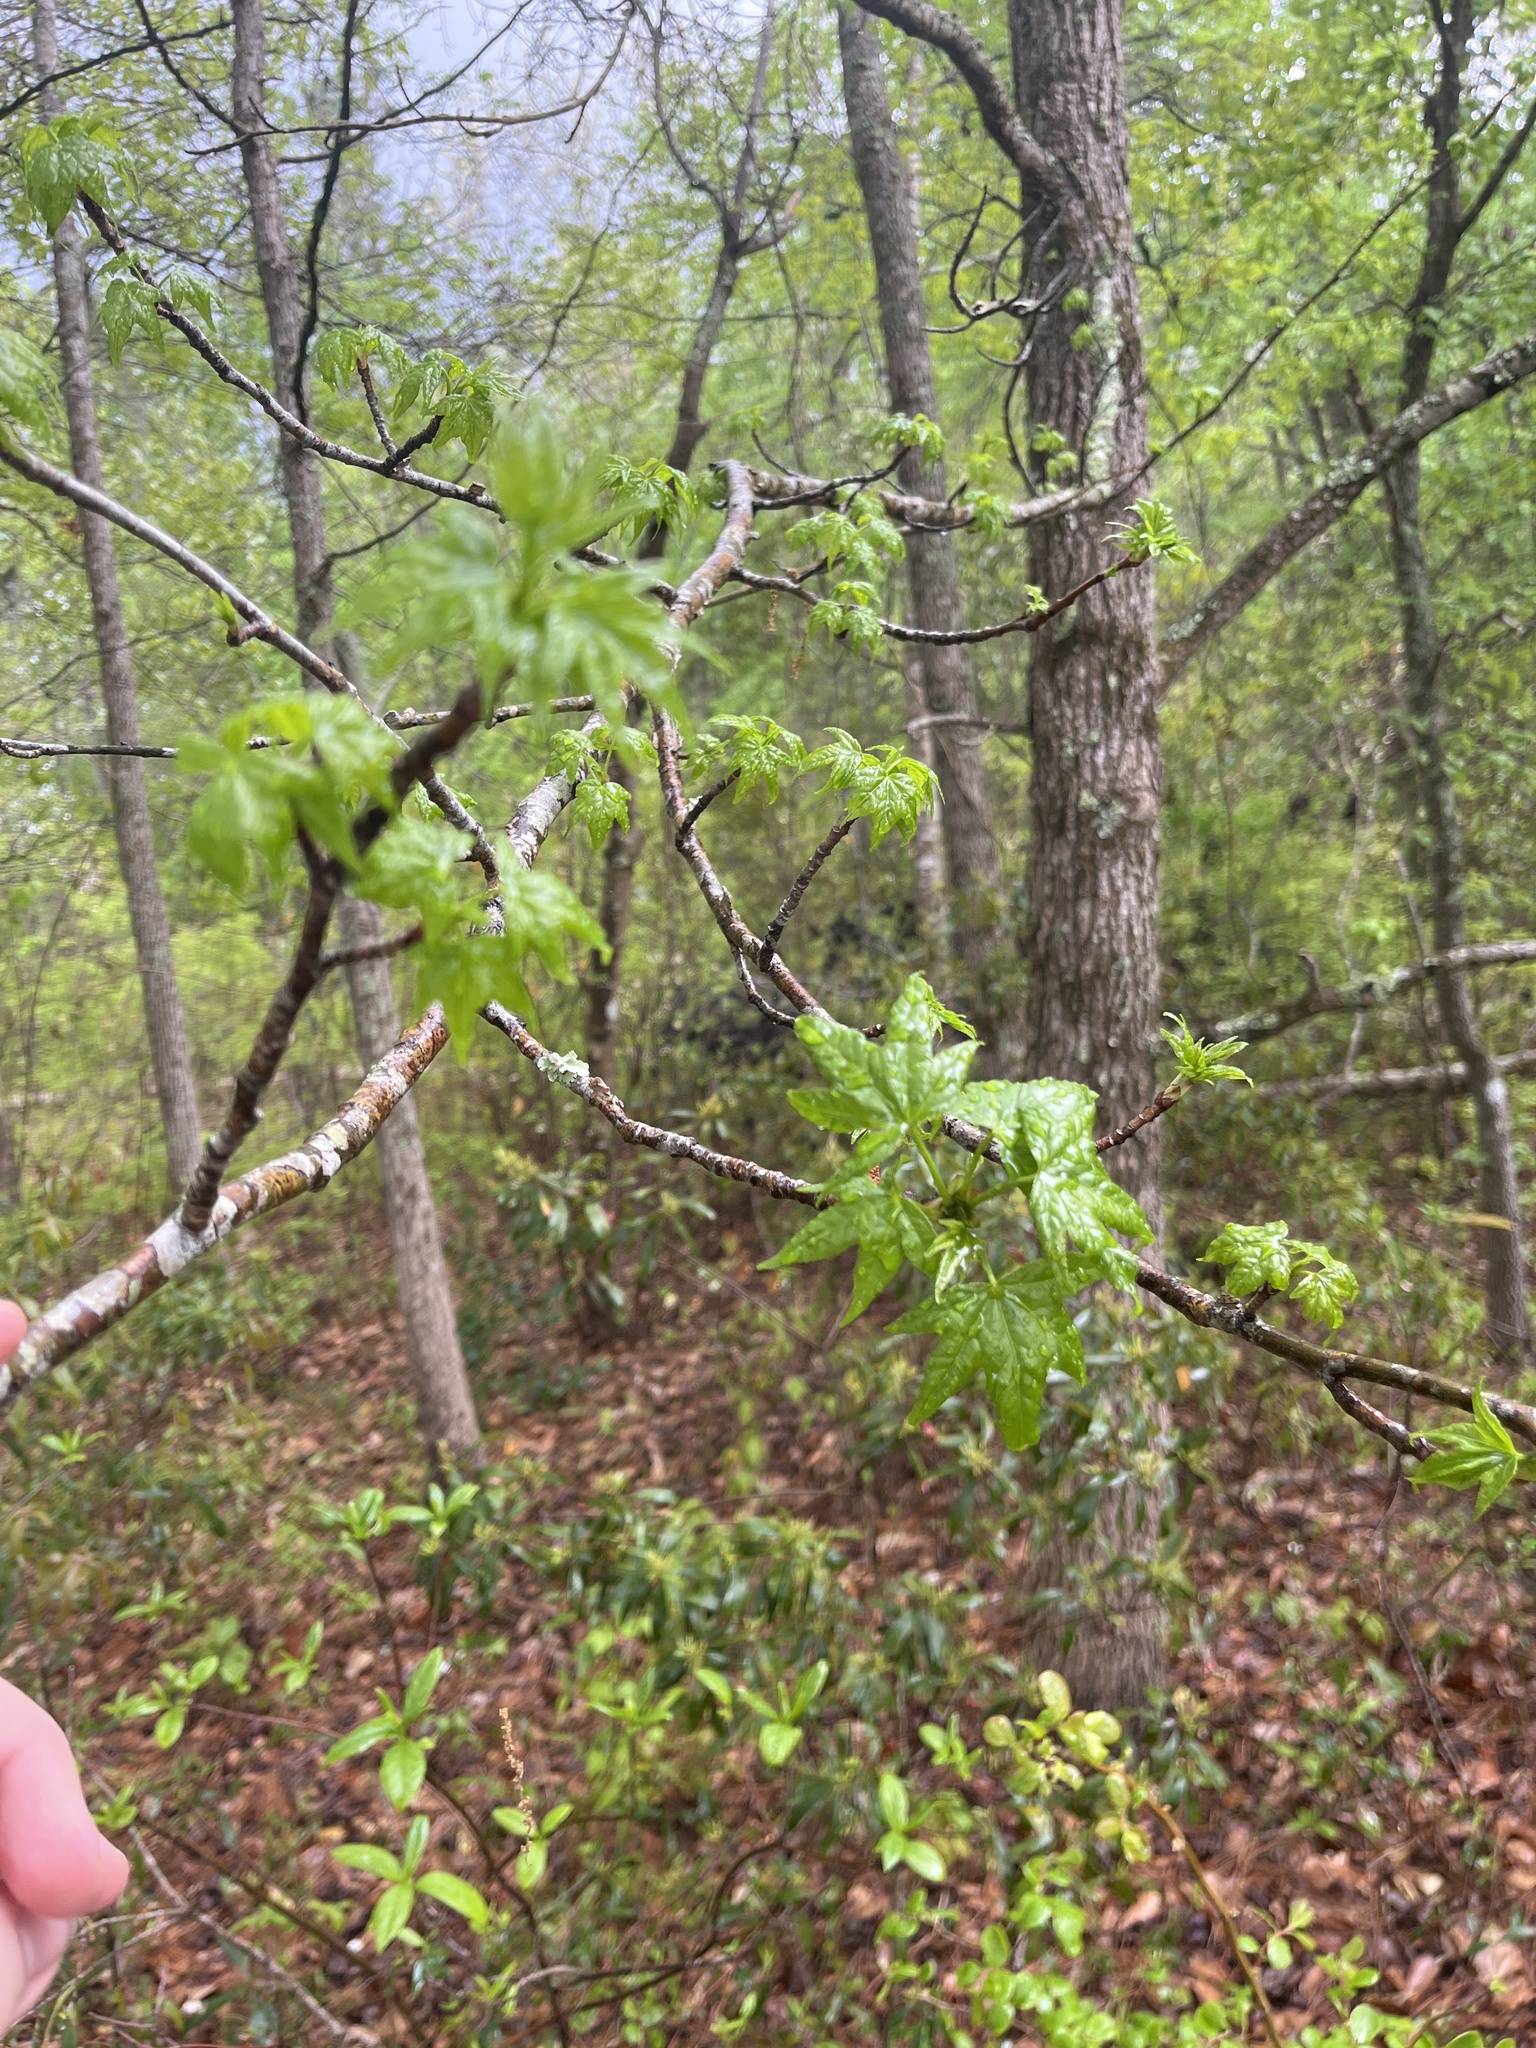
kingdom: Plantae
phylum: Tracheophyta
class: Magnoliopsida
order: Saxifragales
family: Altingiaceae
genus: Liquidambar
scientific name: Liquidambar styraciflua
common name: Sweet gum
